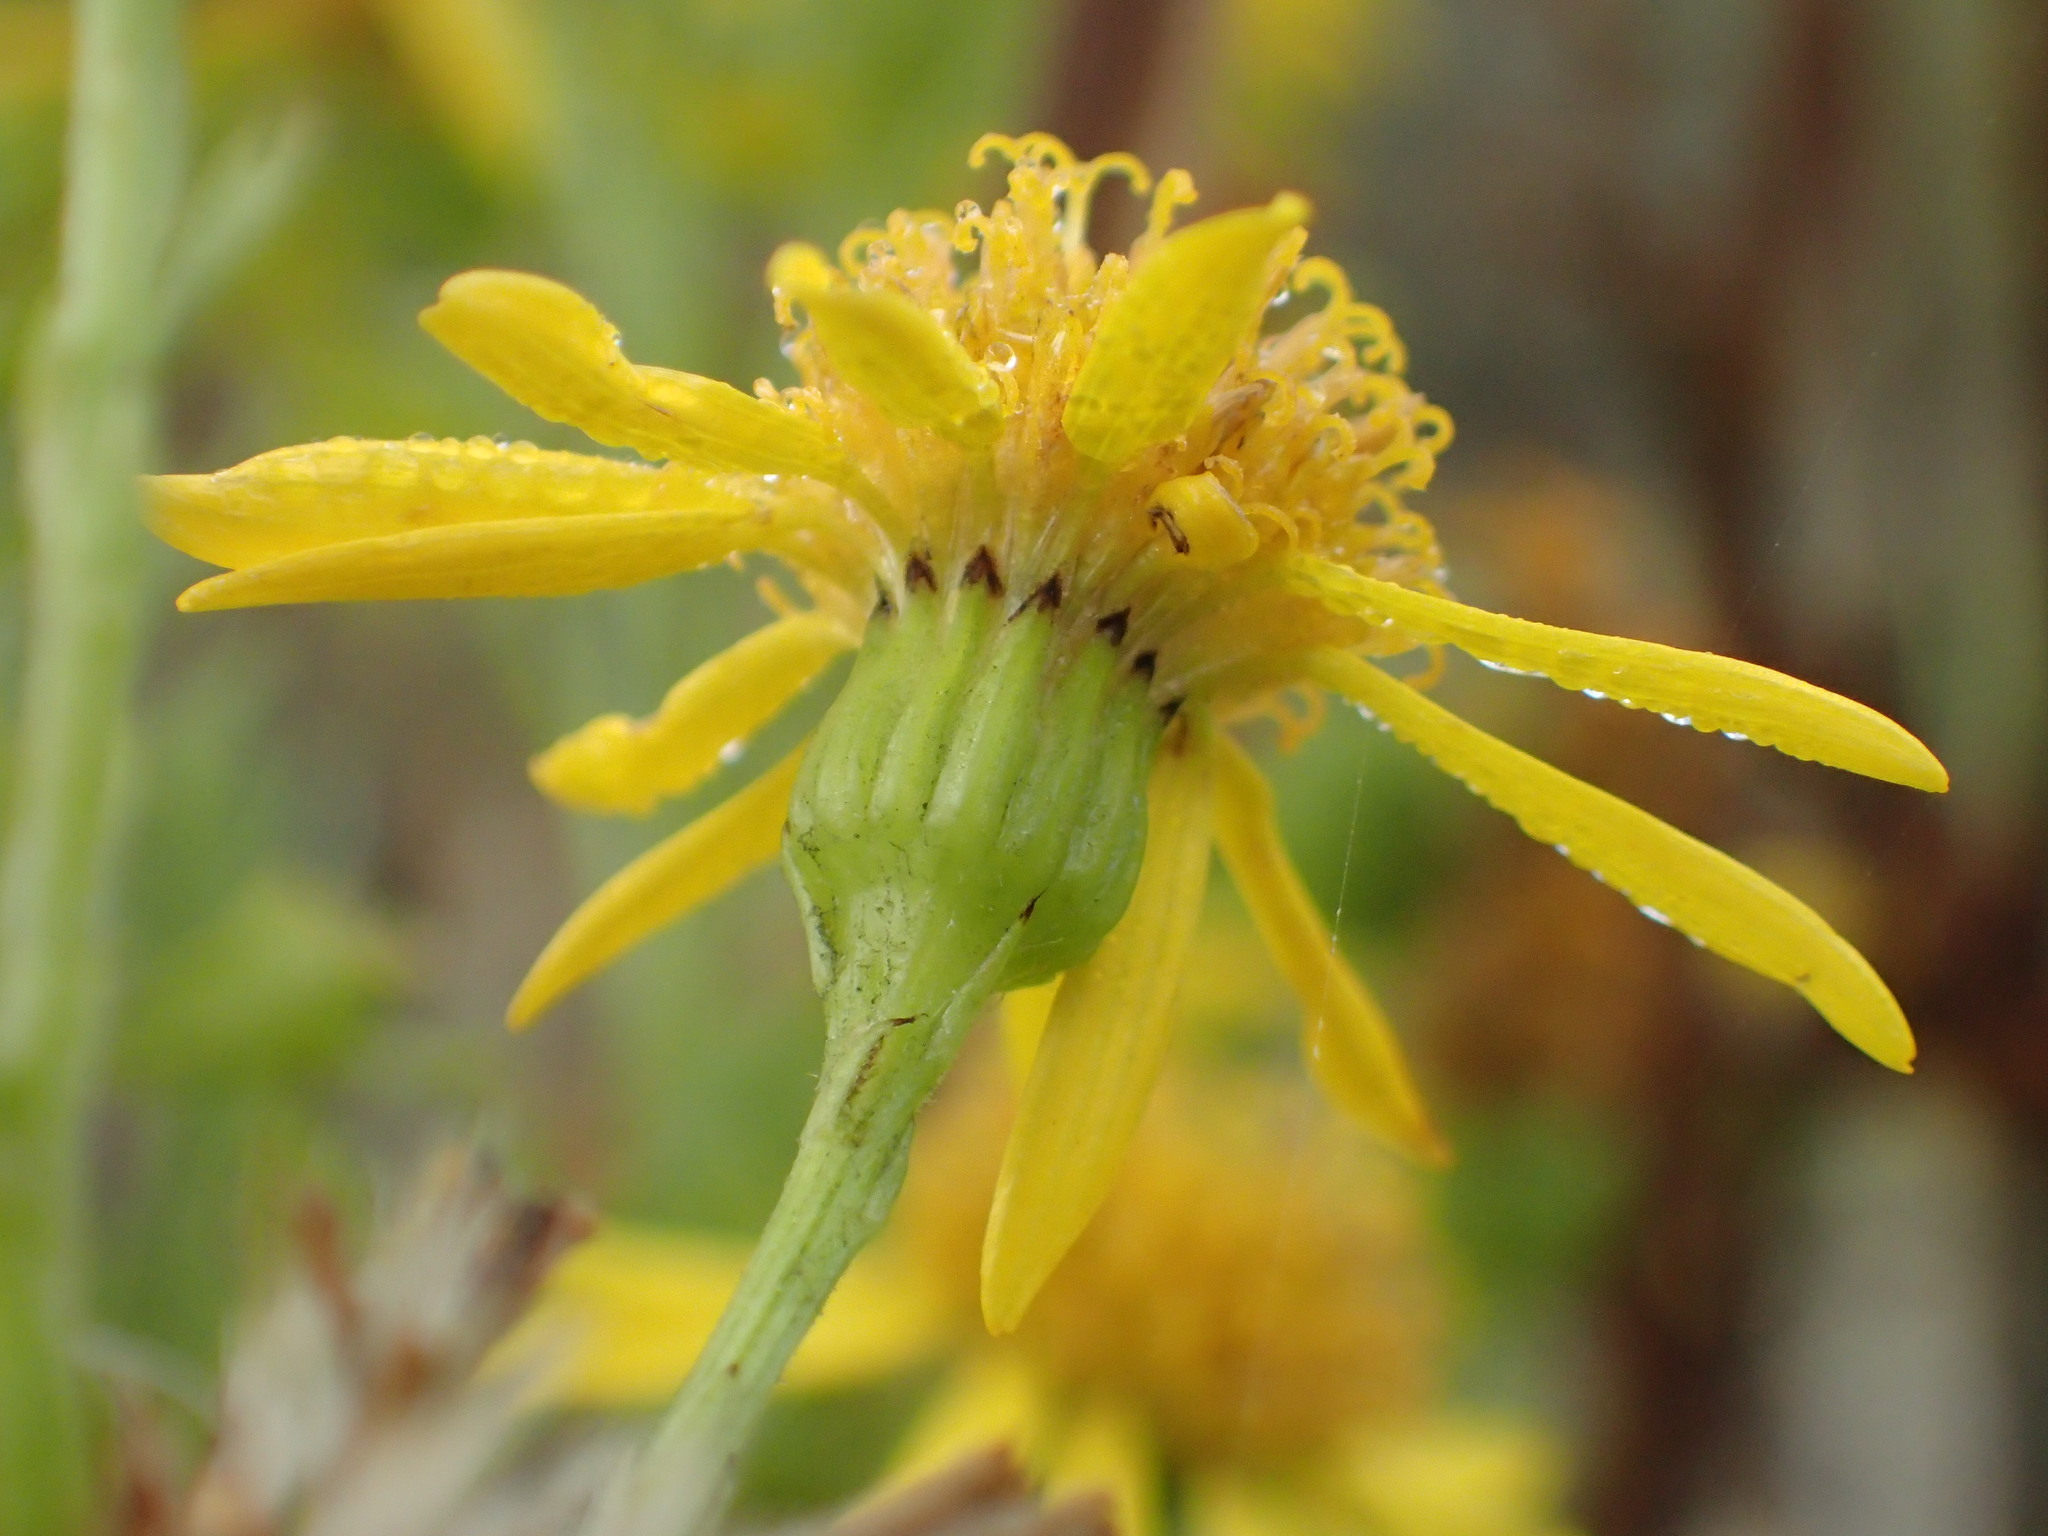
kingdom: Plantae
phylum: Tracheophyta
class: Magnoliopsida
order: Asterales
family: Asteraceae
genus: Jacobaea
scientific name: Jacobaea vulgaris
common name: Stinking willie
